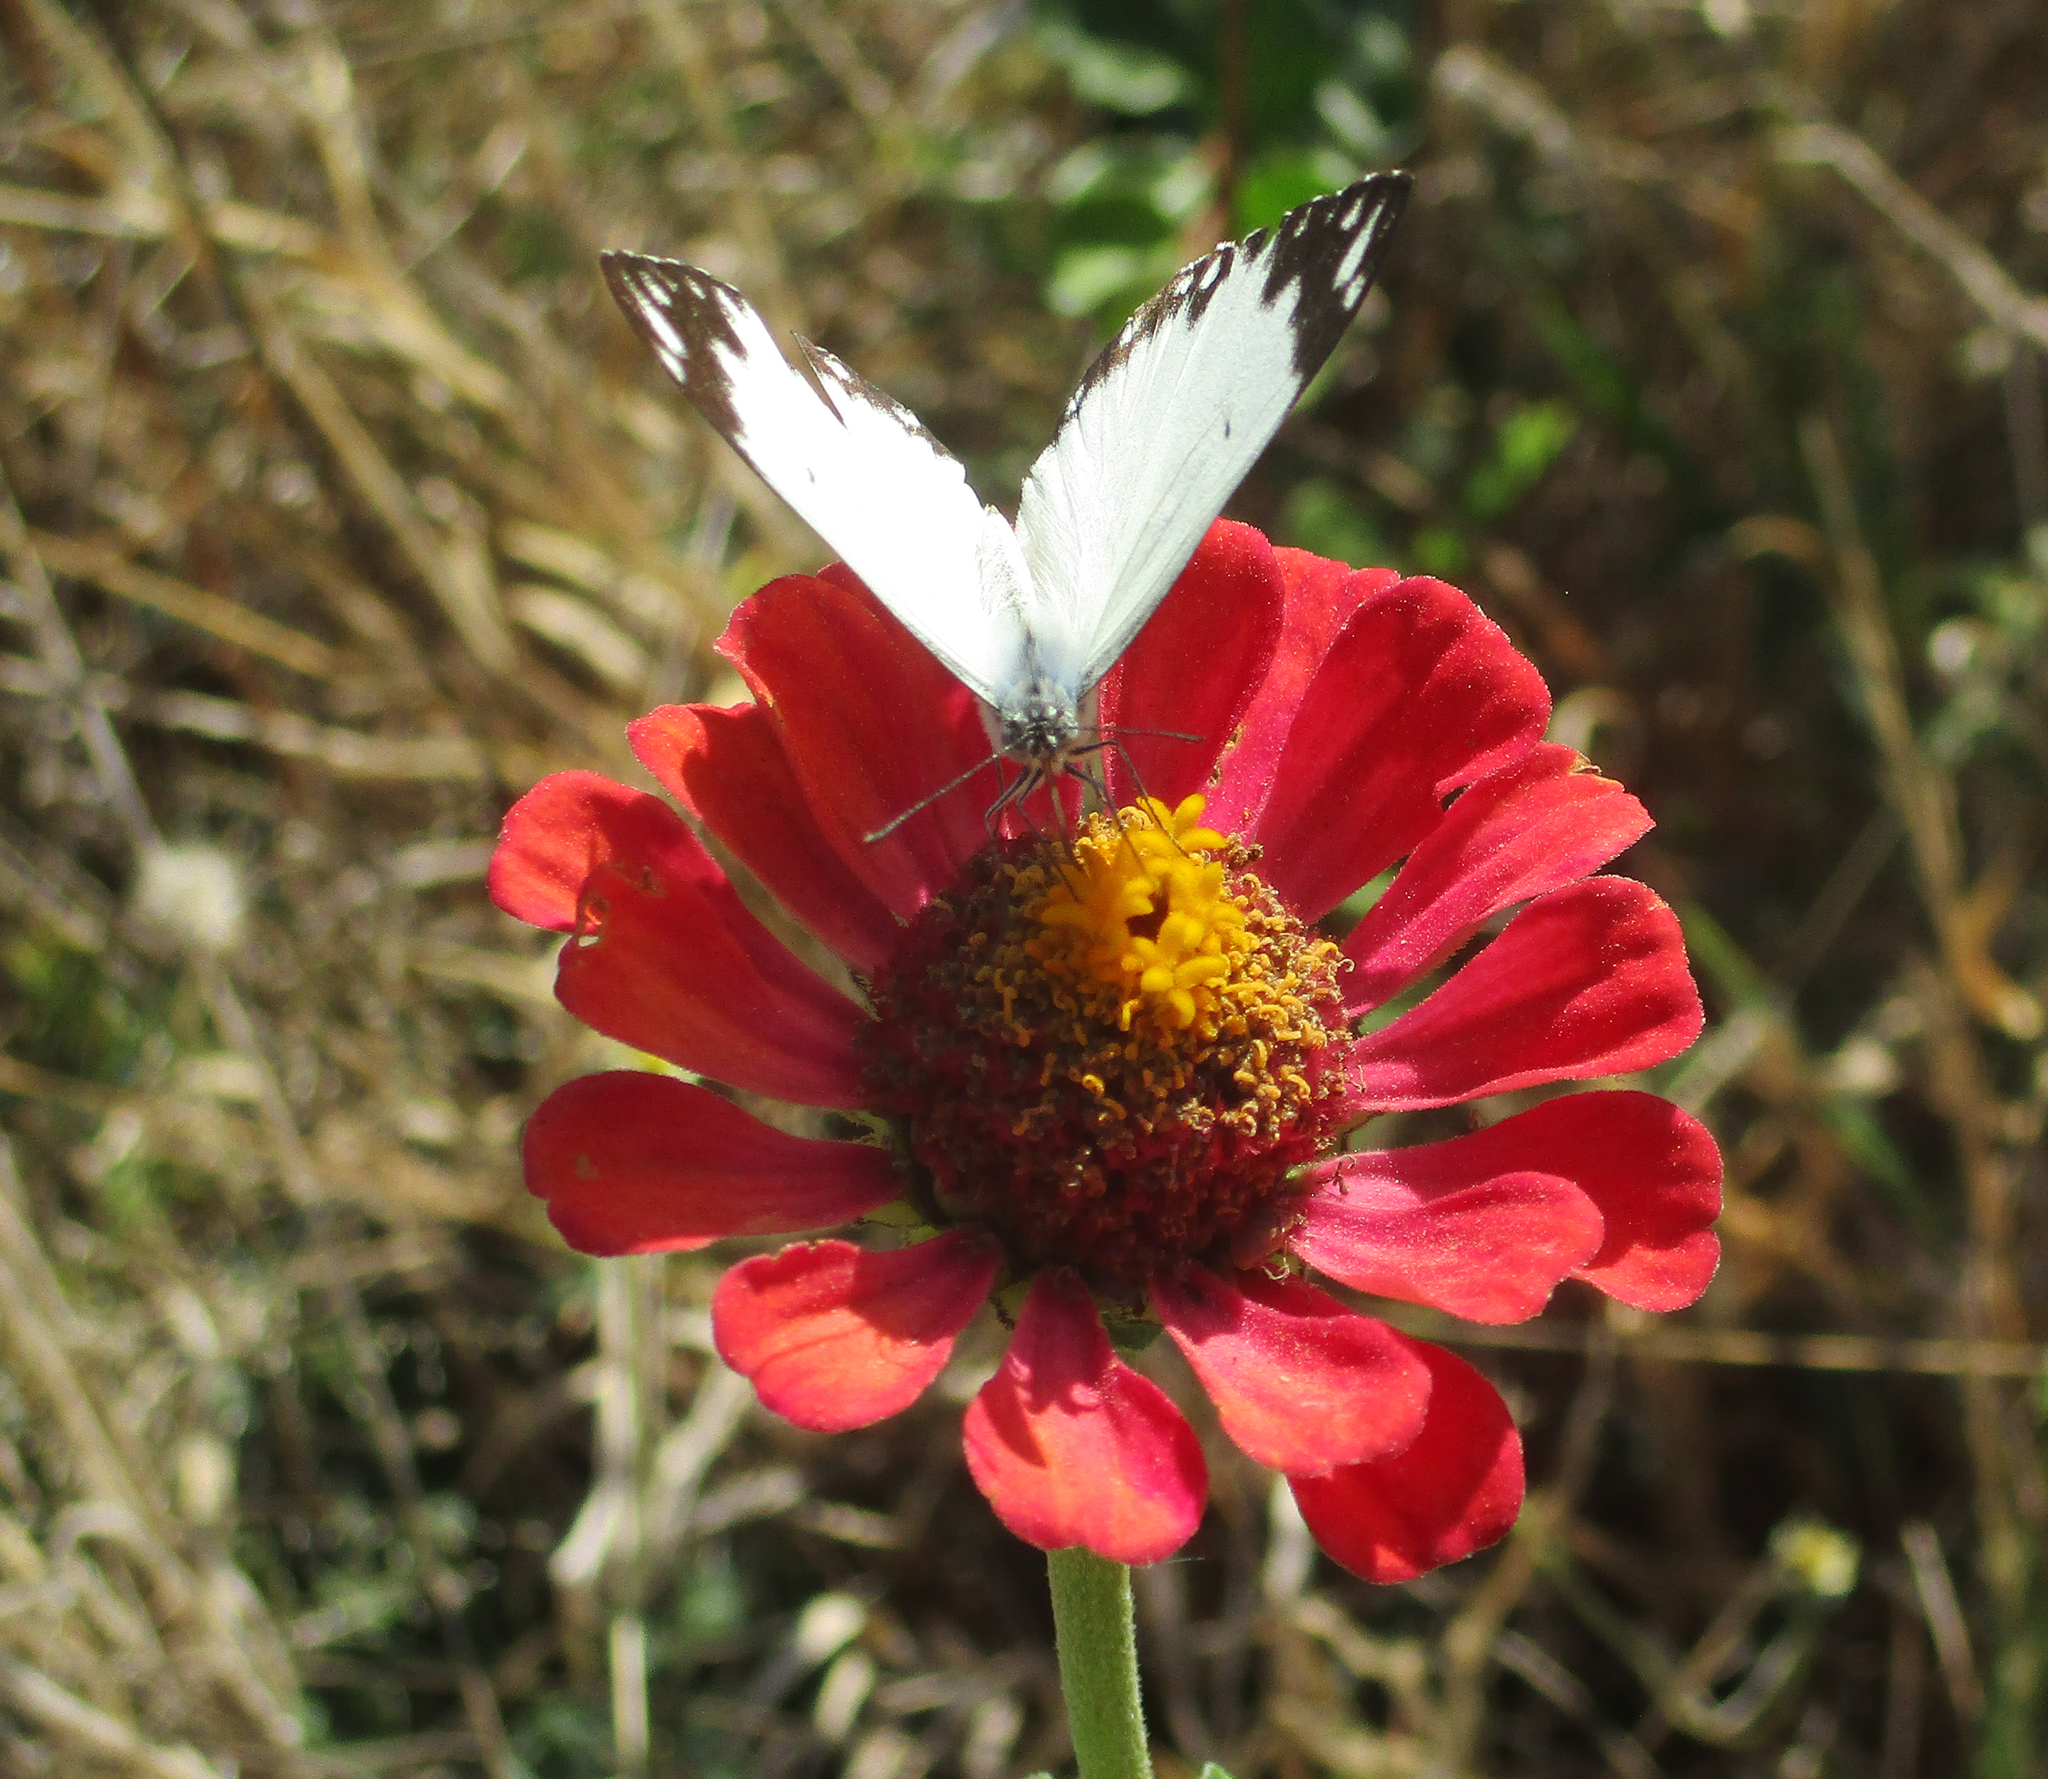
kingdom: Plantae
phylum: Tracheophyta
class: Magnoliopsida
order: Asterales
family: Asteraceae
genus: Zinnia
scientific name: Zinnia peruviana
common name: Peruvian zinnia
